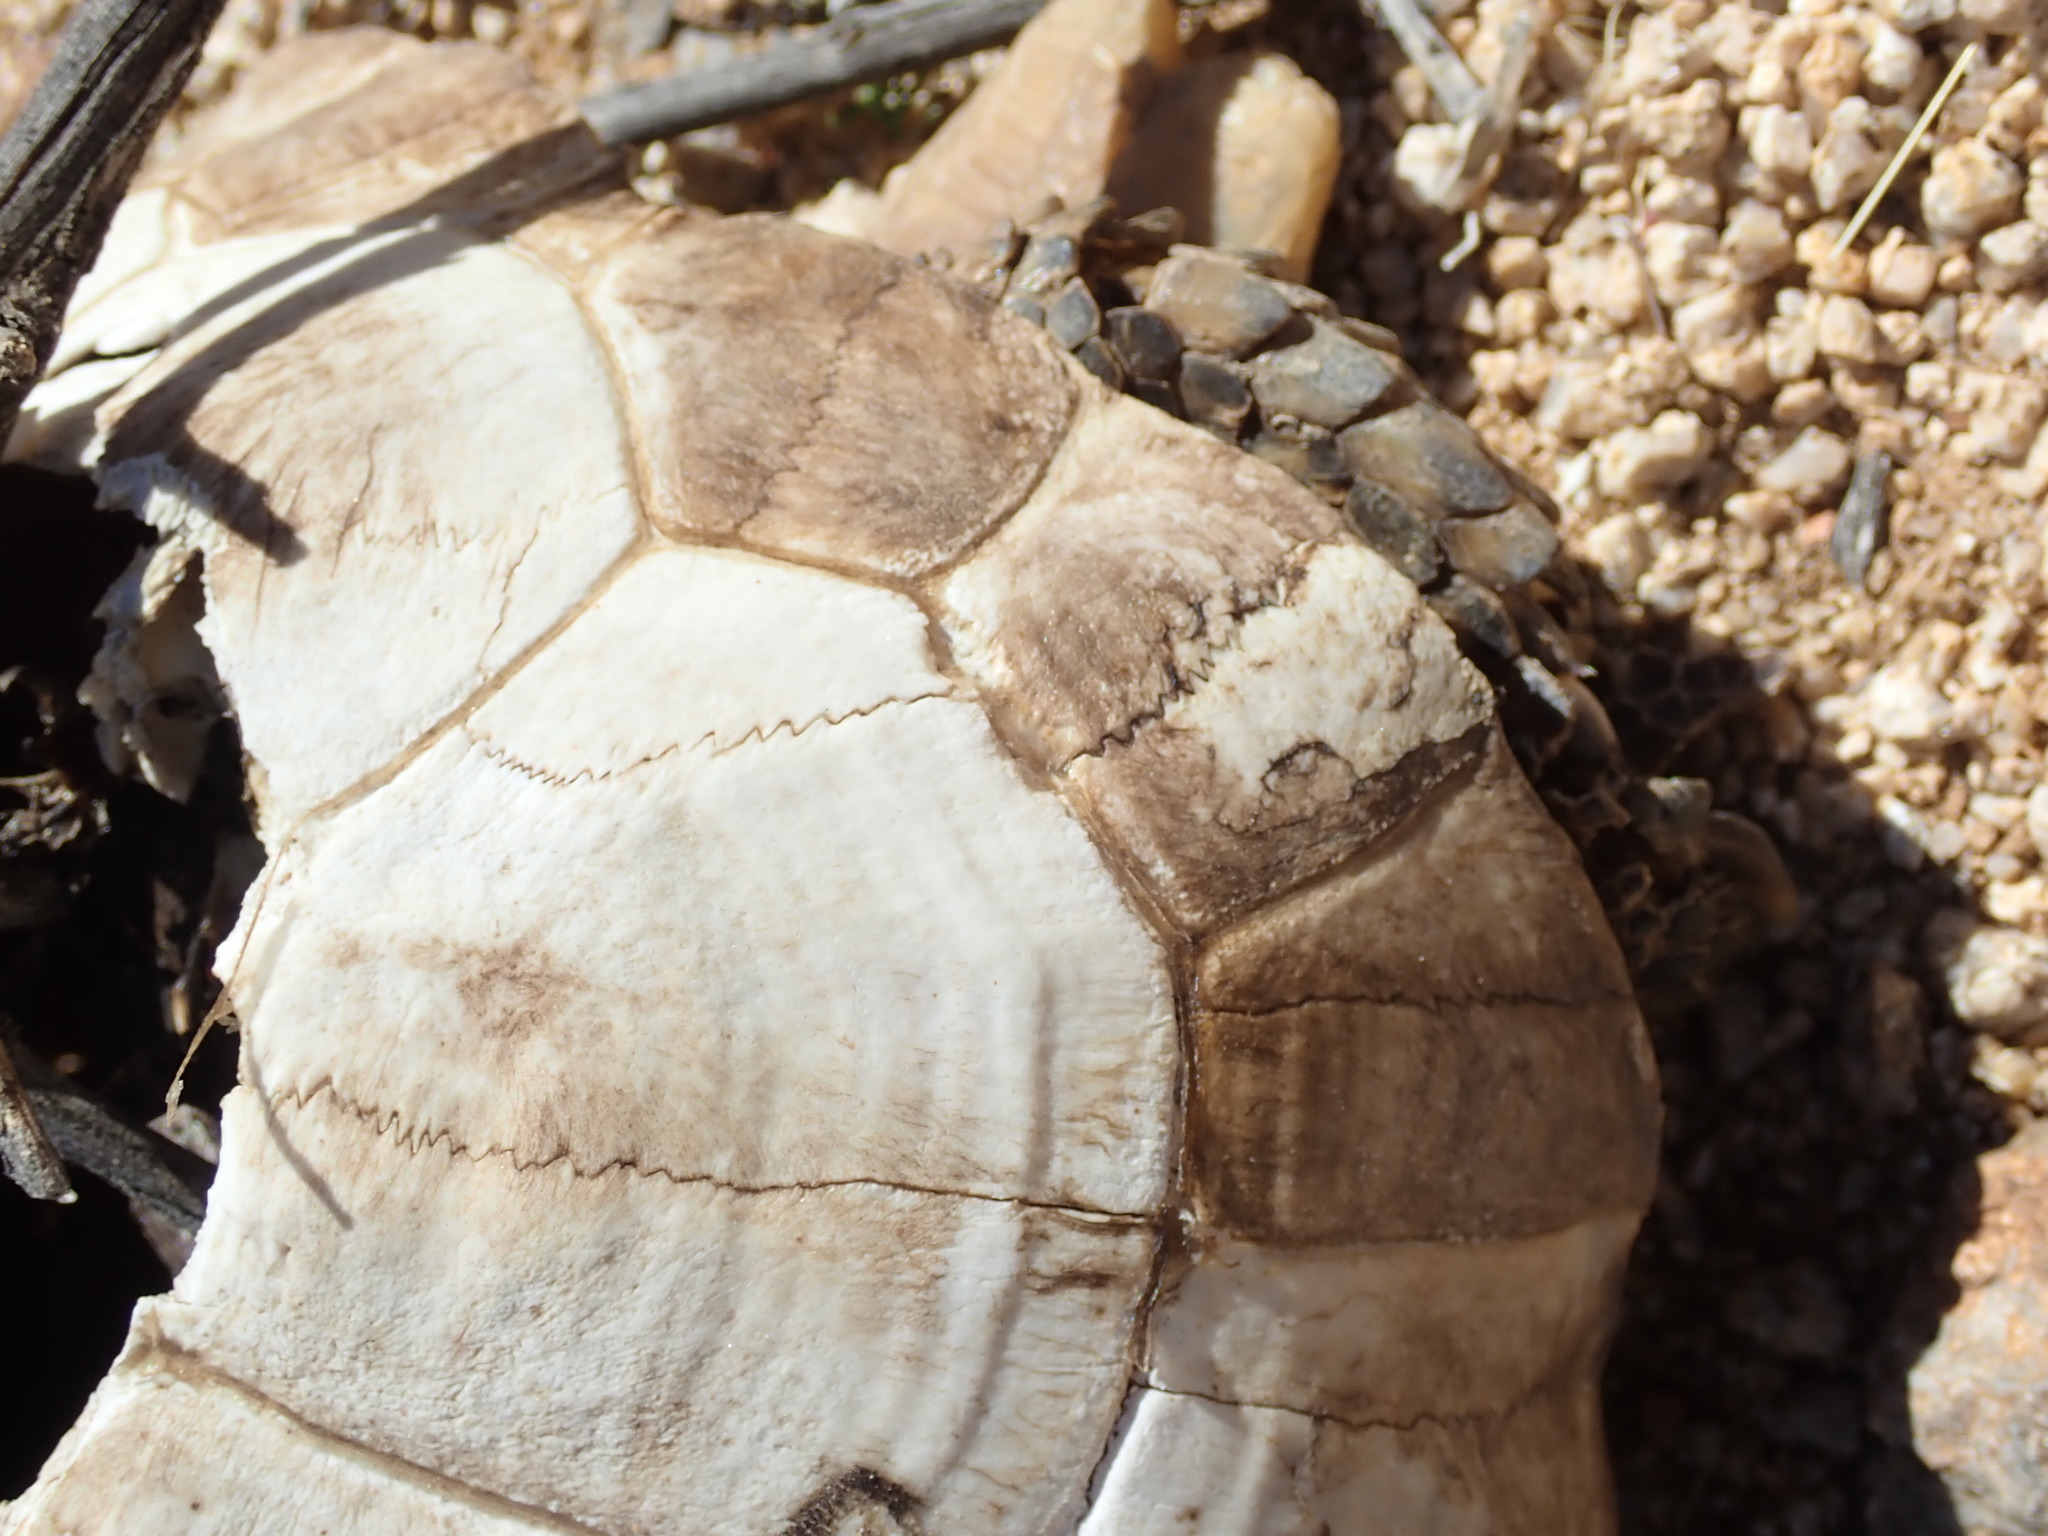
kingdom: Animalia
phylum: Chordata
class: Testudines
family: Testudinidae
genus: Gopherus
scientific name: Gopherus agassizii
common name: Mojave desert tortoise
